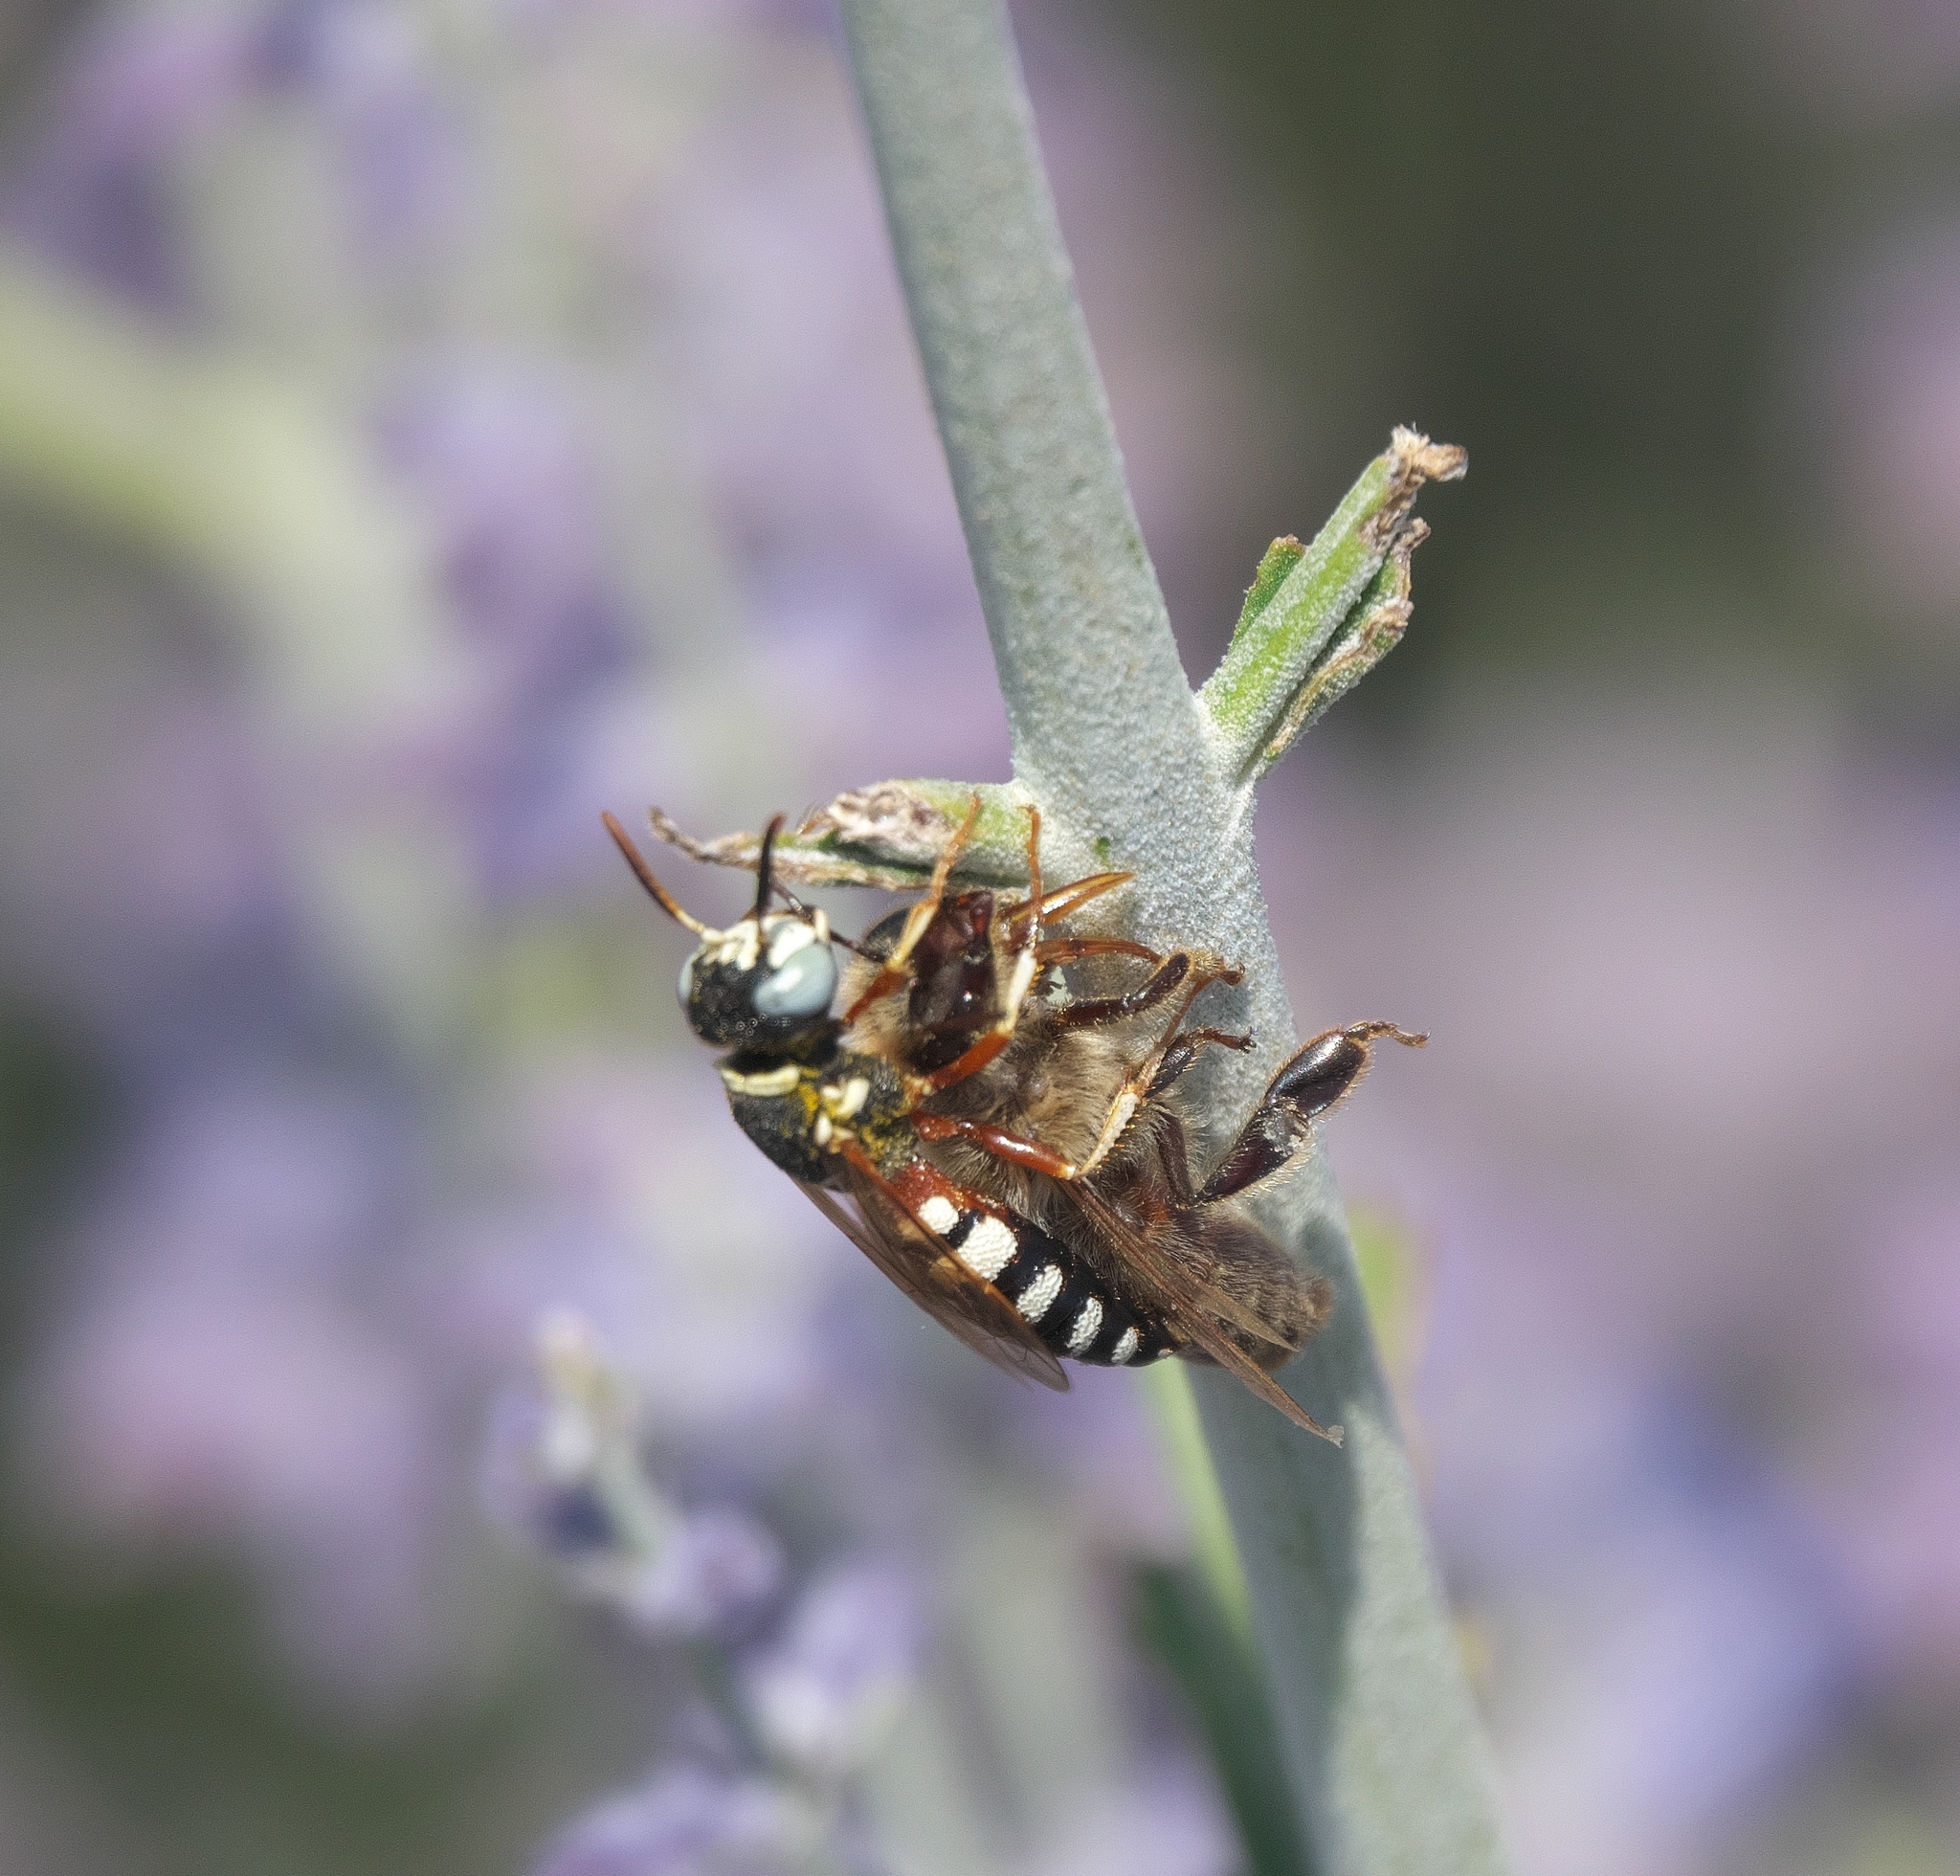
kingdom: Animalia
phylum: Arthropoda
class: Insecta
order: Hymenoptera
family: Crabronidae
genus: Philanthus
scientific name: Philanthus ventilabris
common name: Bee-killer wasp
